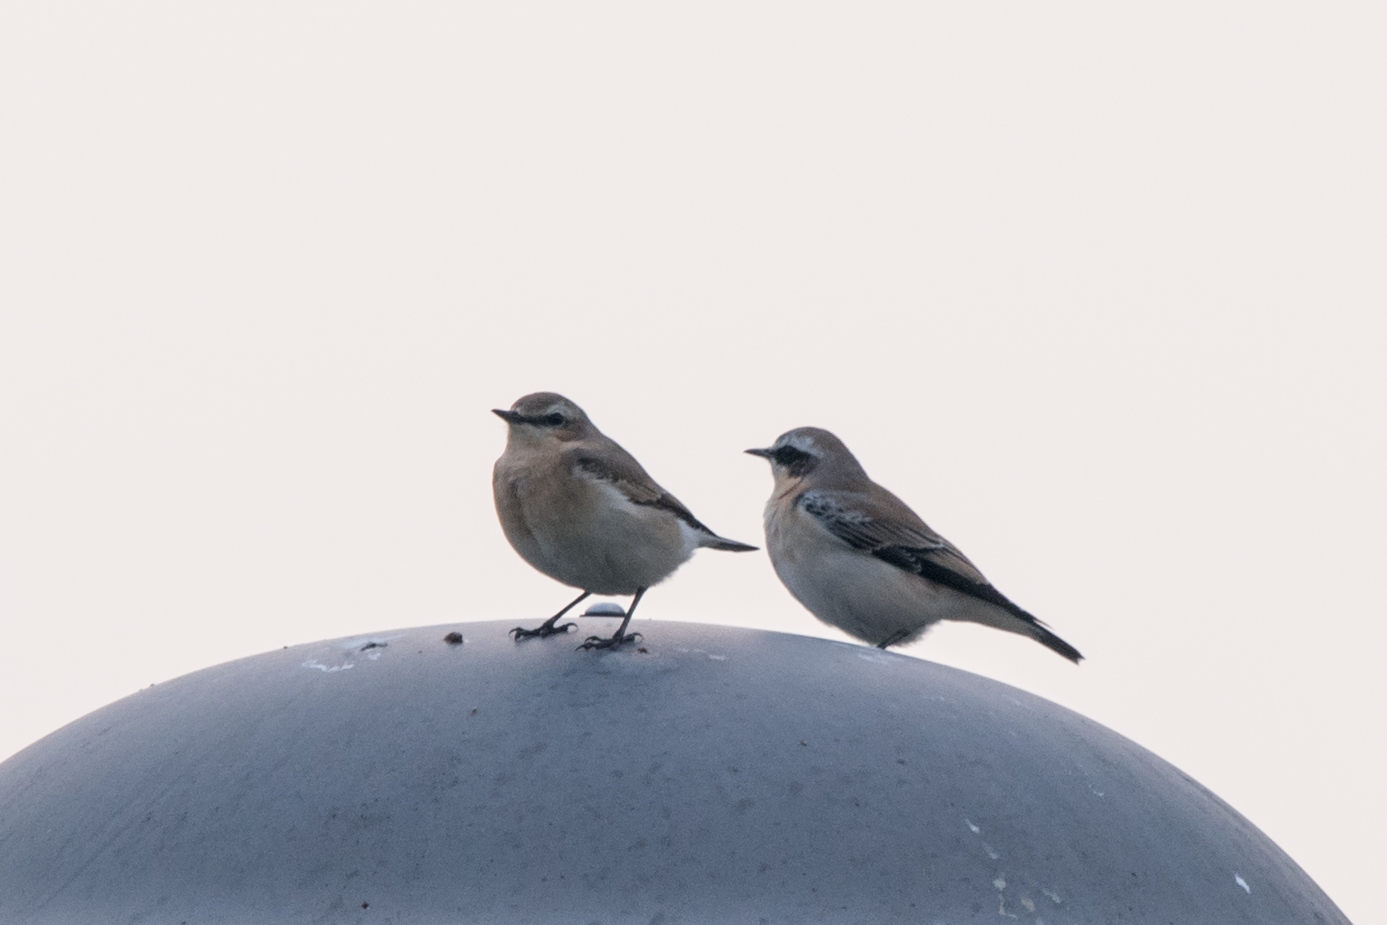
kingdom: Animalia
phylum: Chordata
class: Aves
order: Passeriformes
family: Muscicapidae
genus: Oenanthe
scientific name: Oenanthe oenanthe
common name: Northern wheatear
